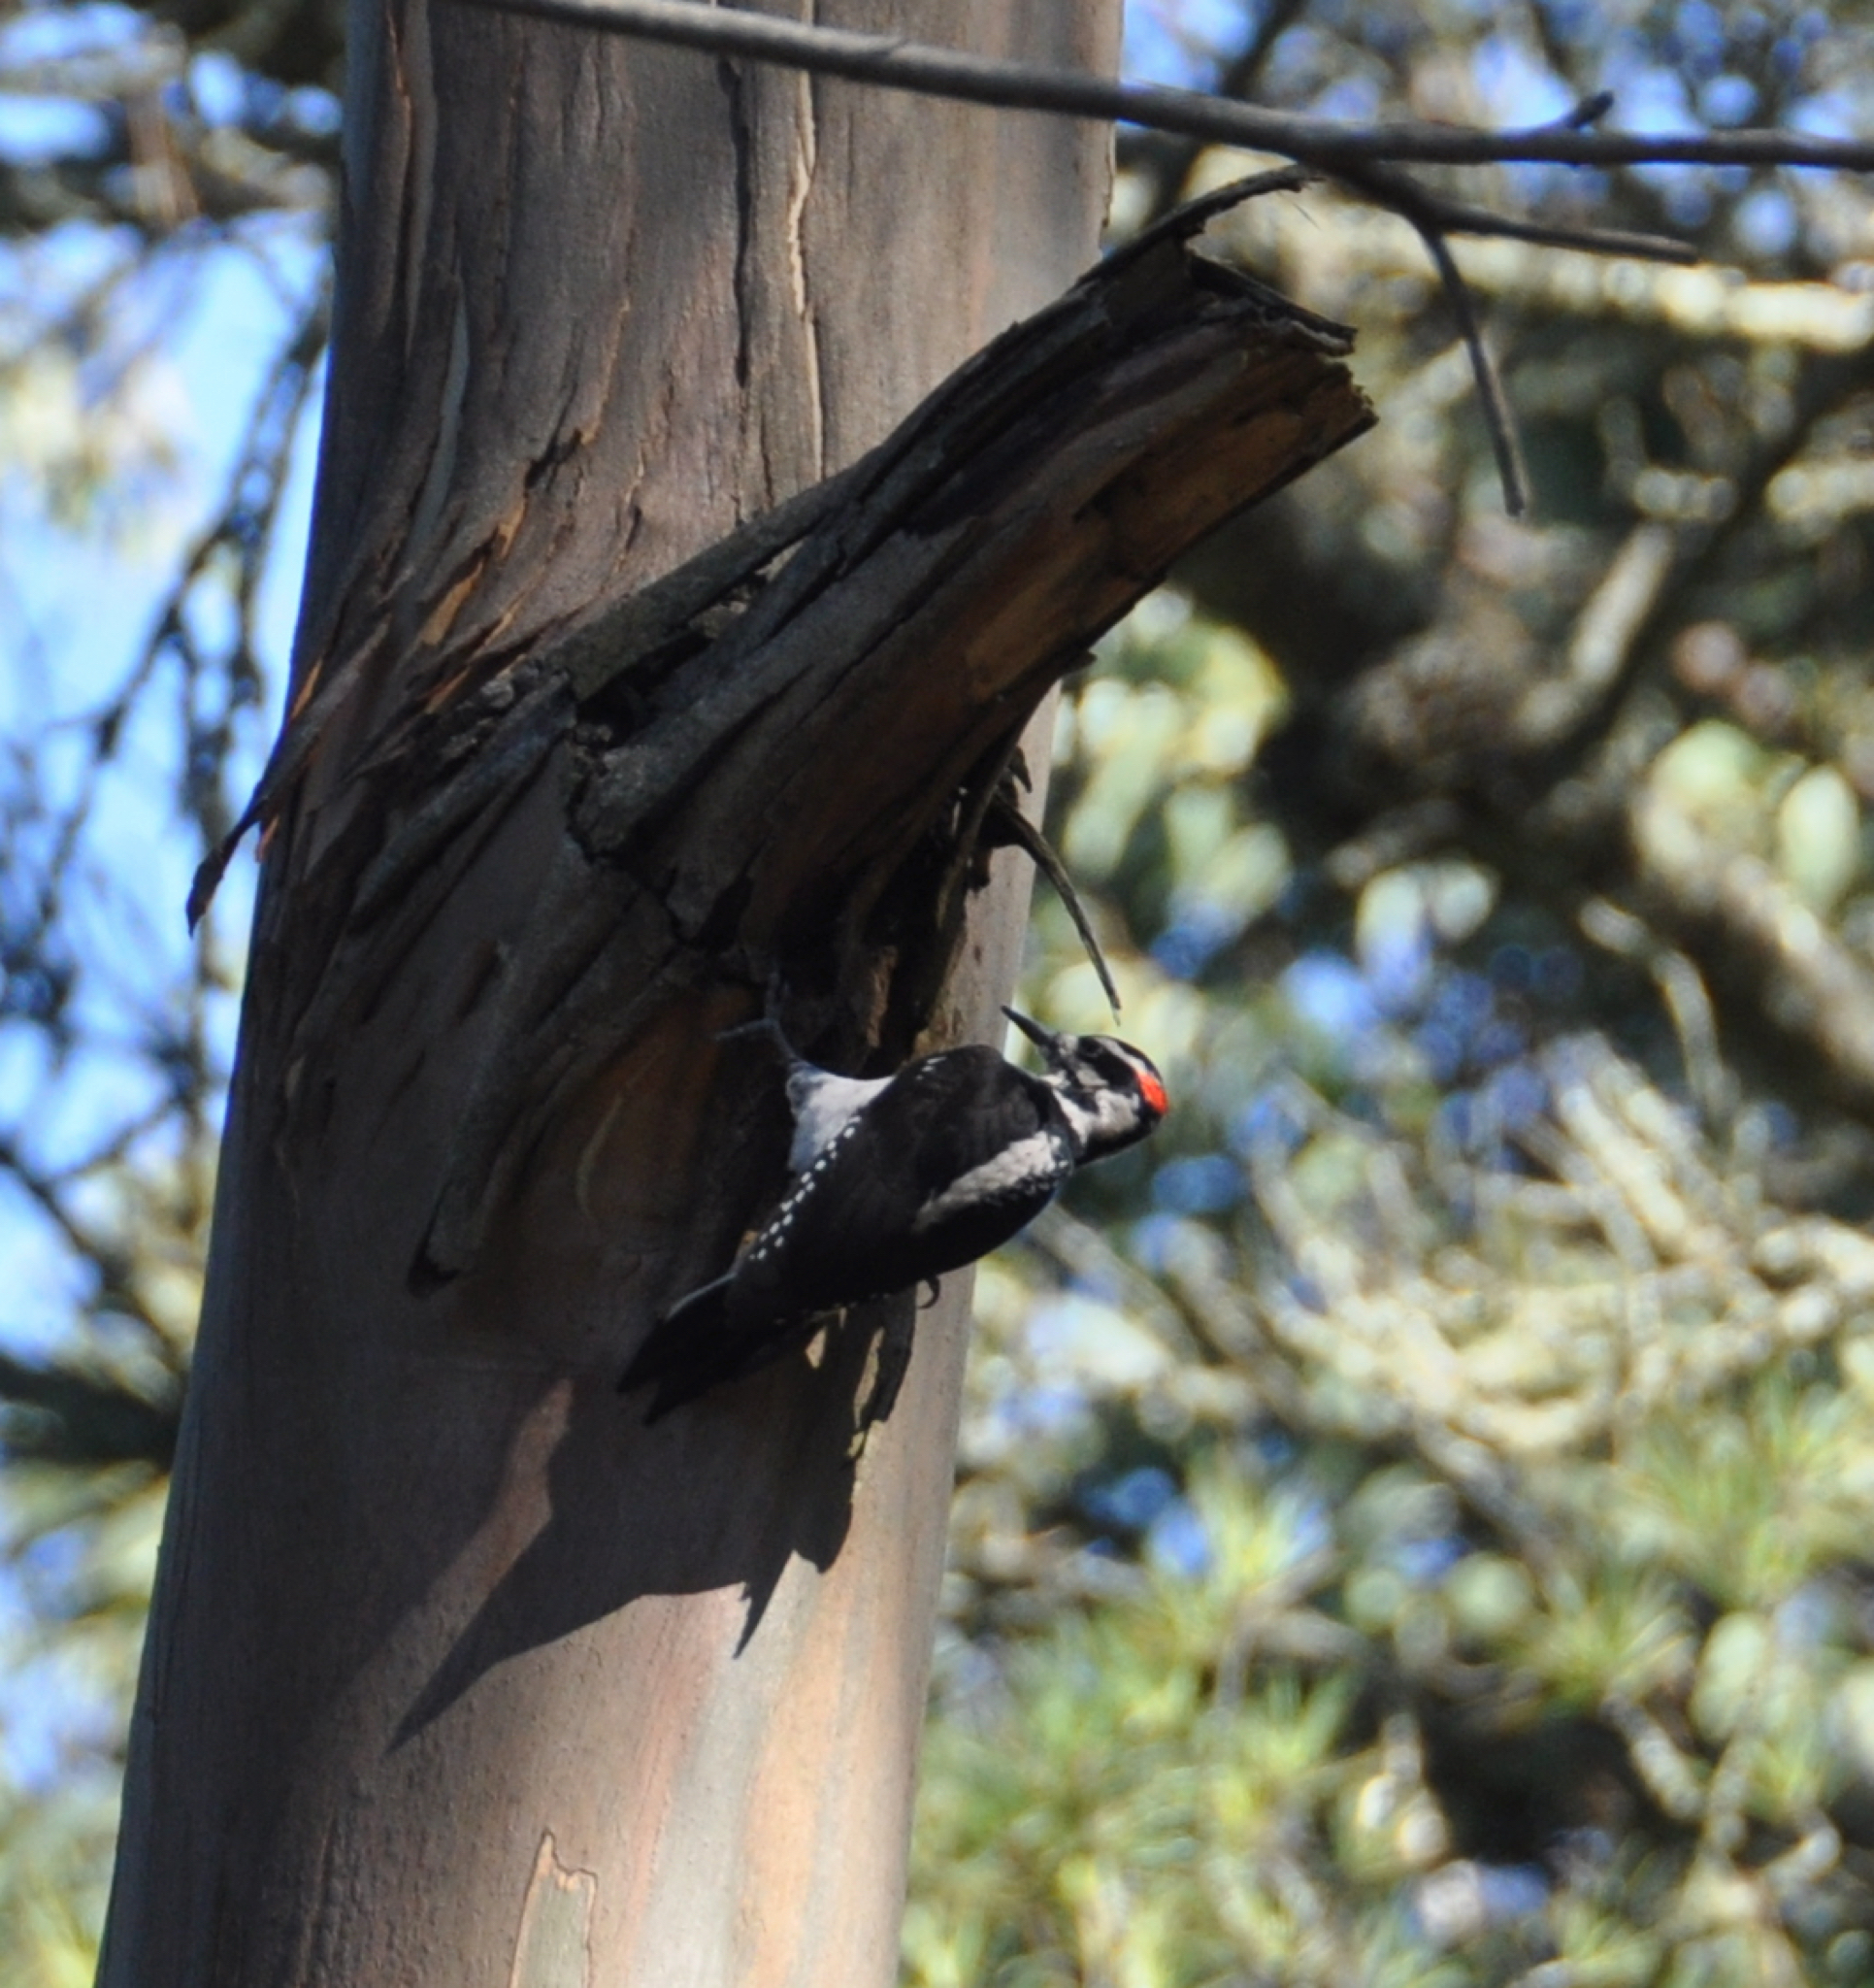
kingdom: Animalia
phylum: Chordata
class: Aves
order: Piciformes
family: Picidae
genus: Leuconotopicus
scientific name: Leuconotopicus villosus
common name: Hairy woodpecker
